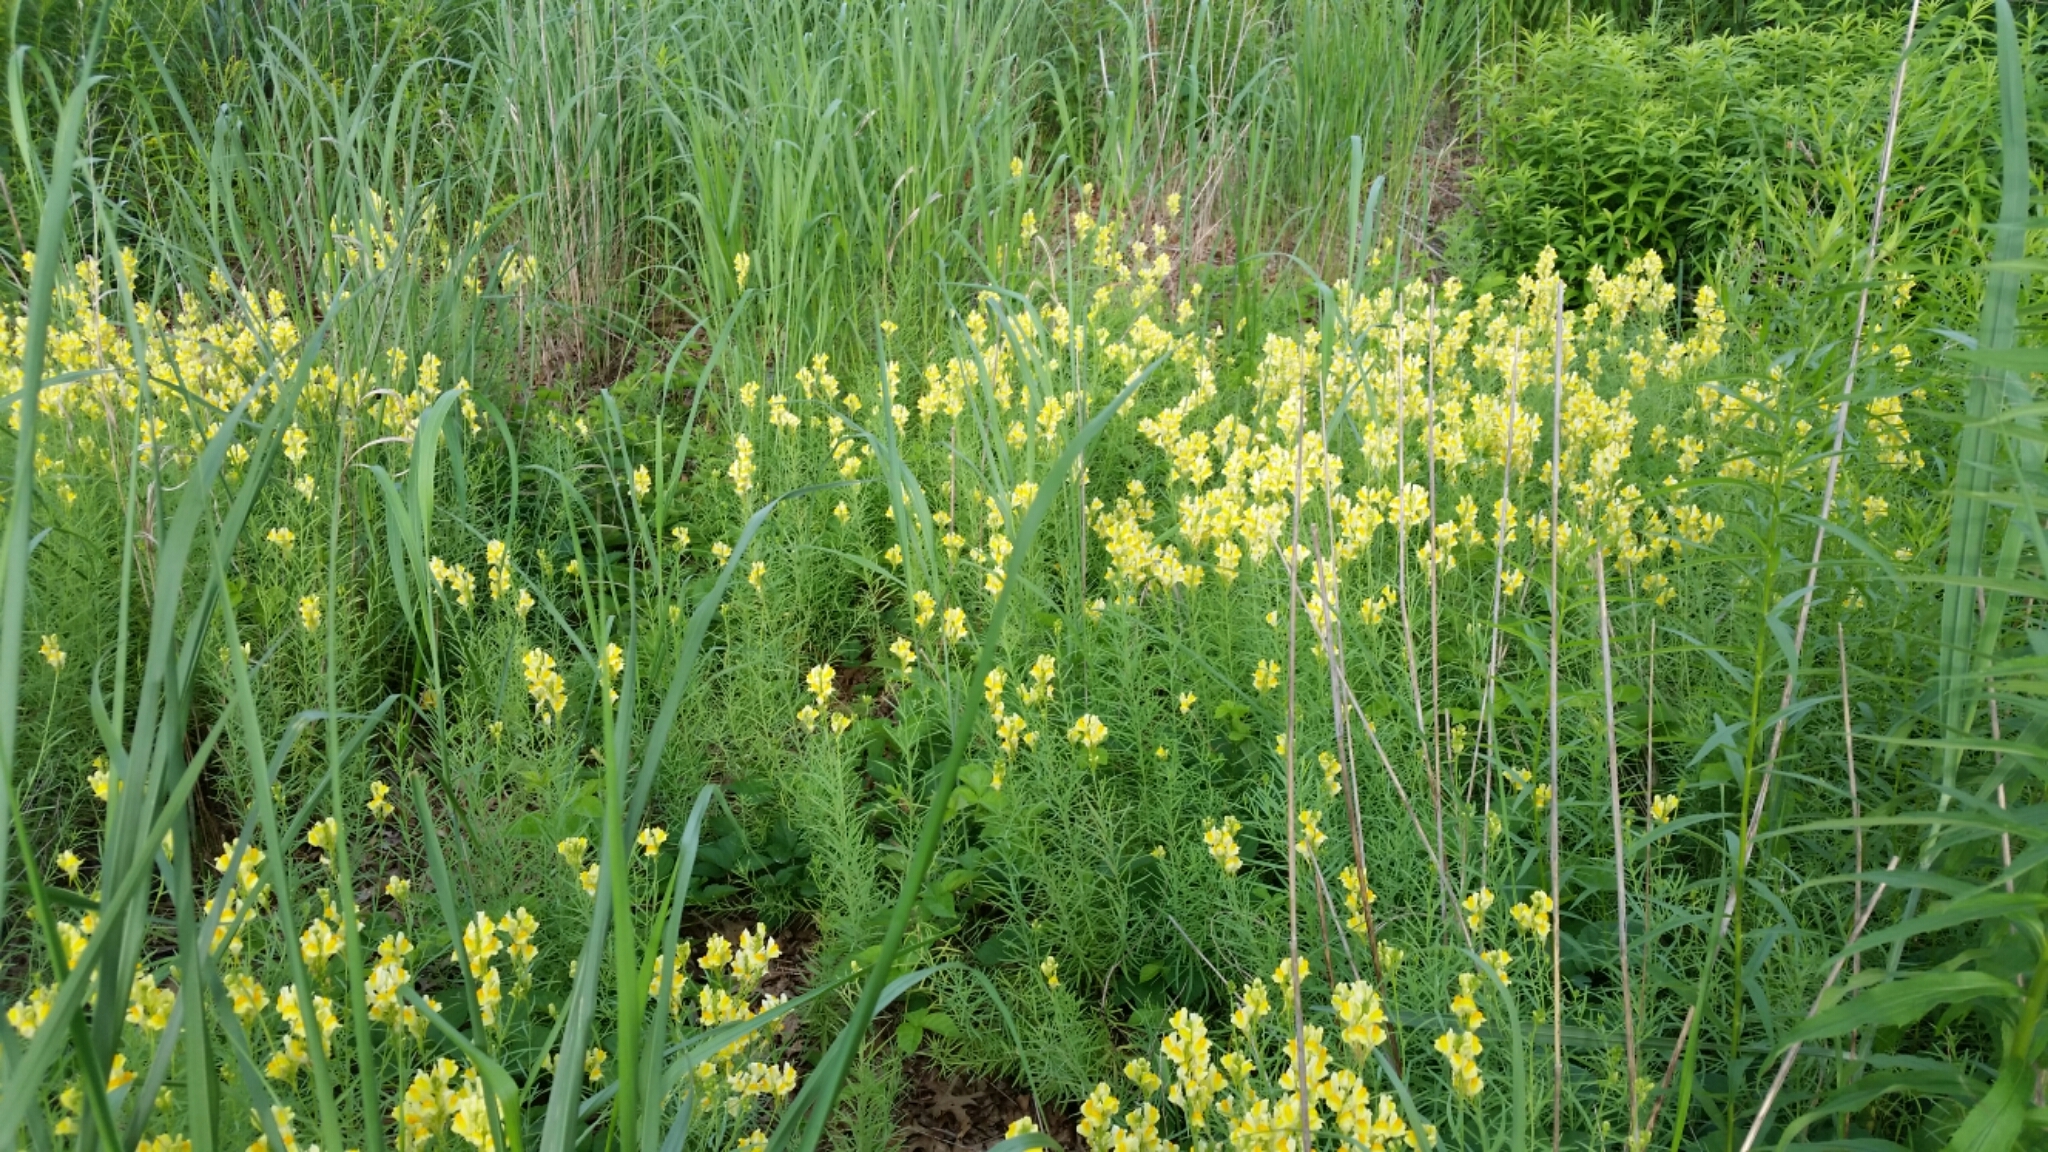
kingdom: Plantae
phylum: Tracheophyta
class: Magnoliopsida
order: Lamiales
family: Plantaginaceae
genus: Linaria
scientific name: Linaria vulgaris
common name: Butter and eggs
